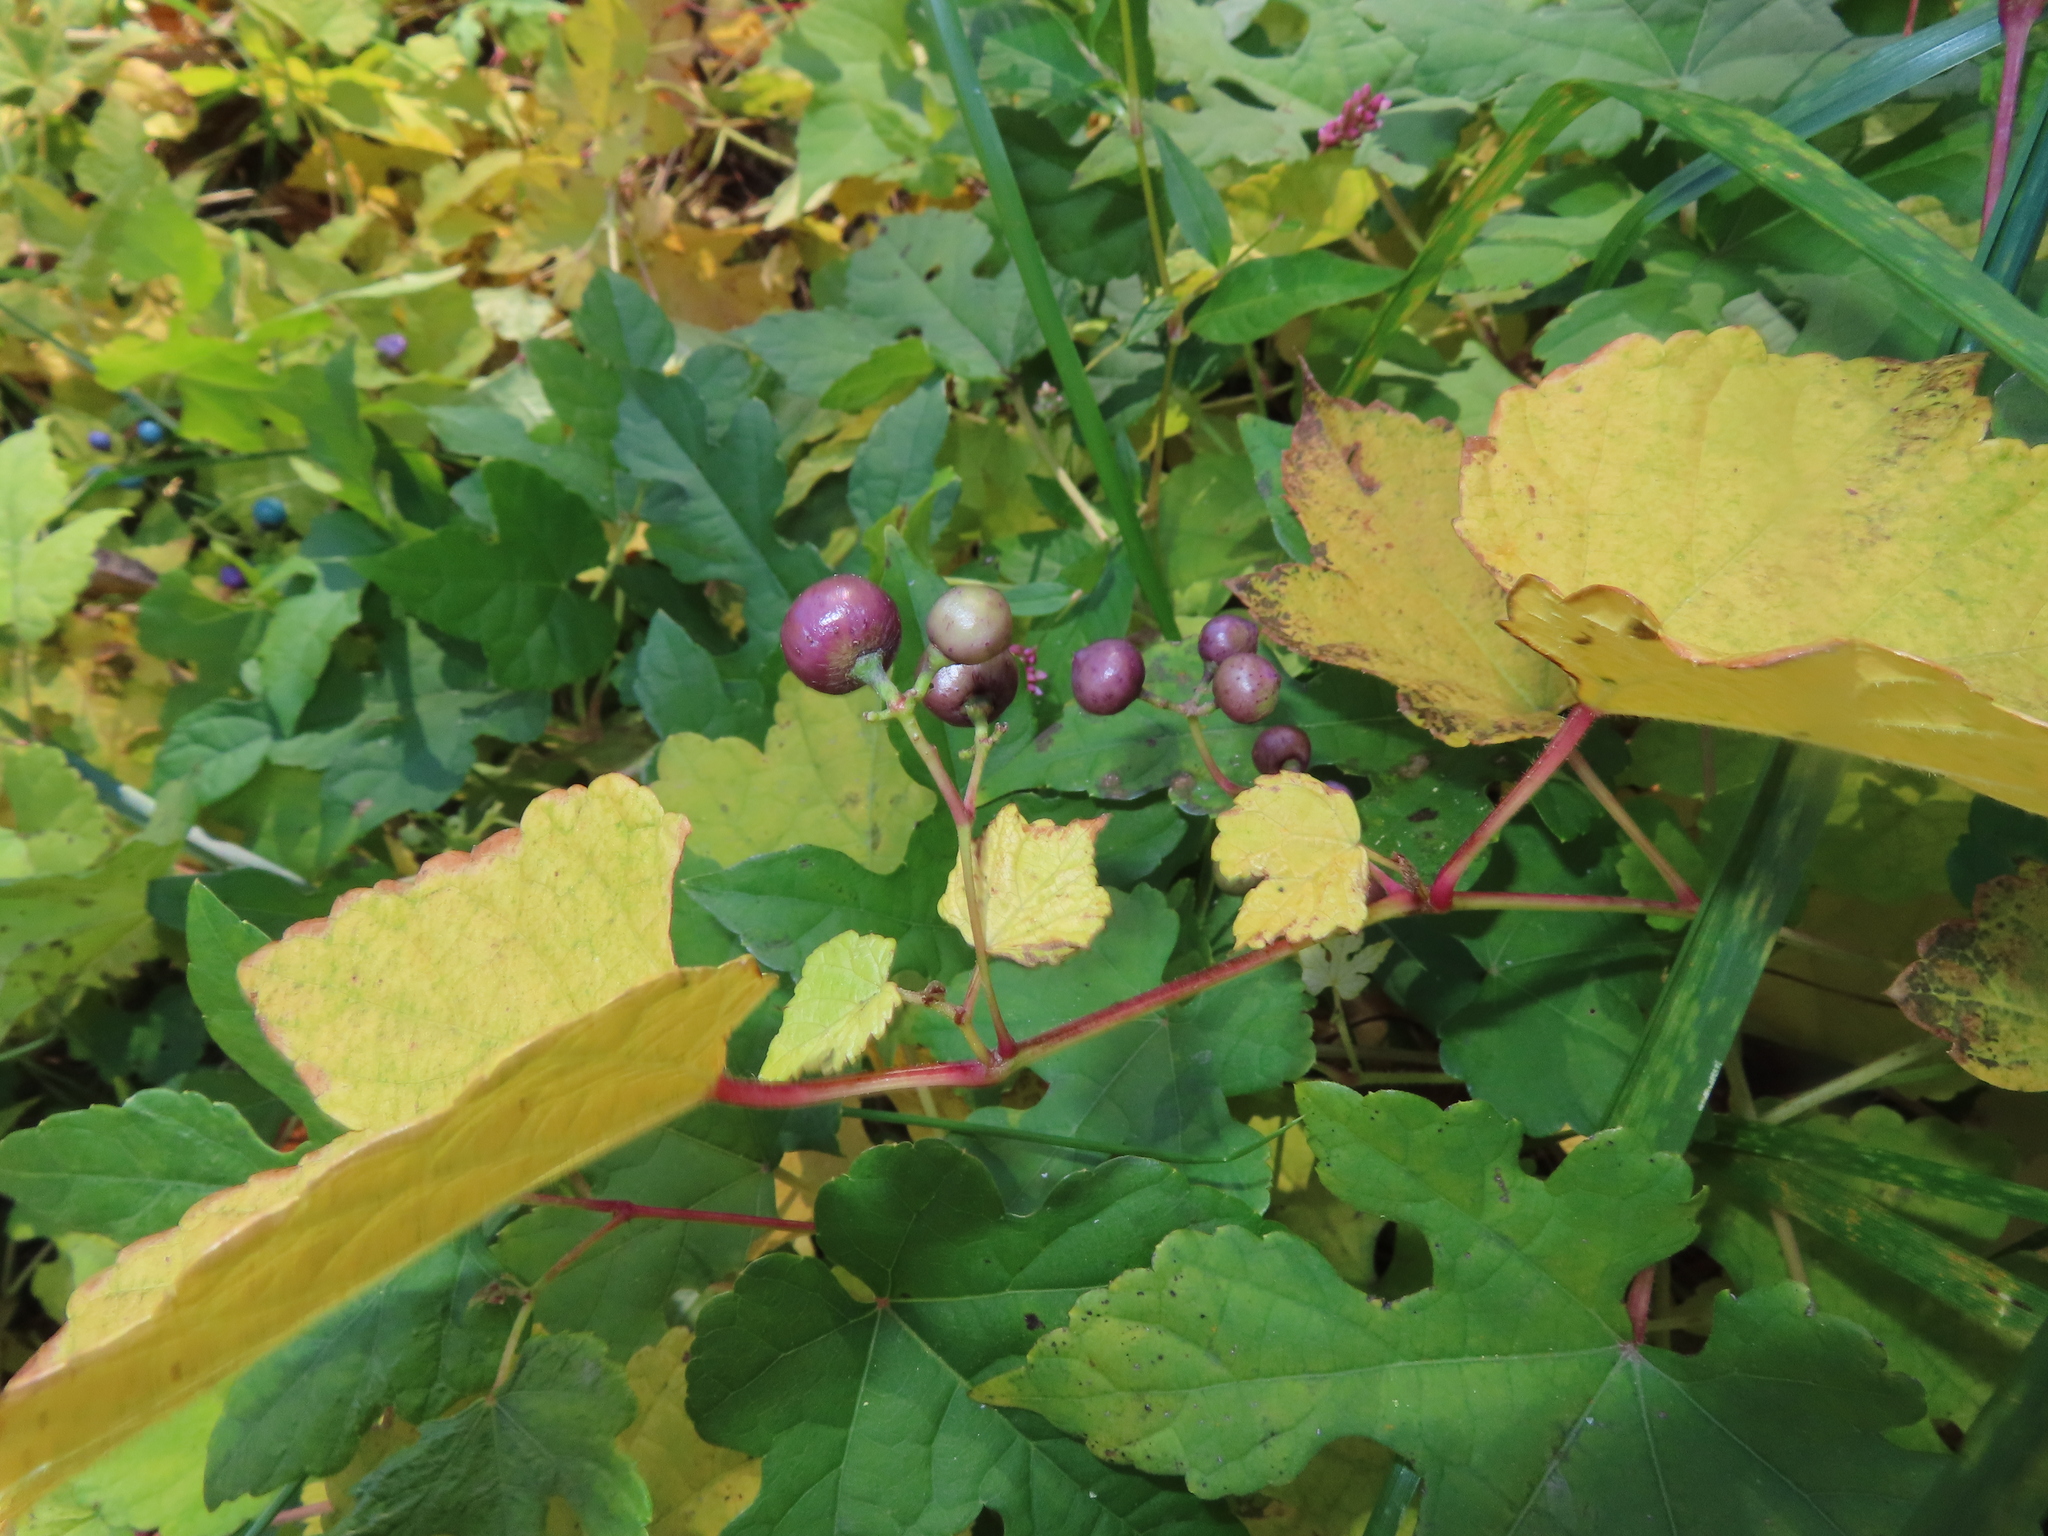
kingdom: Plantae
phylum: Tracheophyta
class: Magnoliopsida
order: Vitales
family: Vitaceae
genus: Ampelopsis
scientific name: Ampelopsis glandulosa
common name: Amur peppervine
